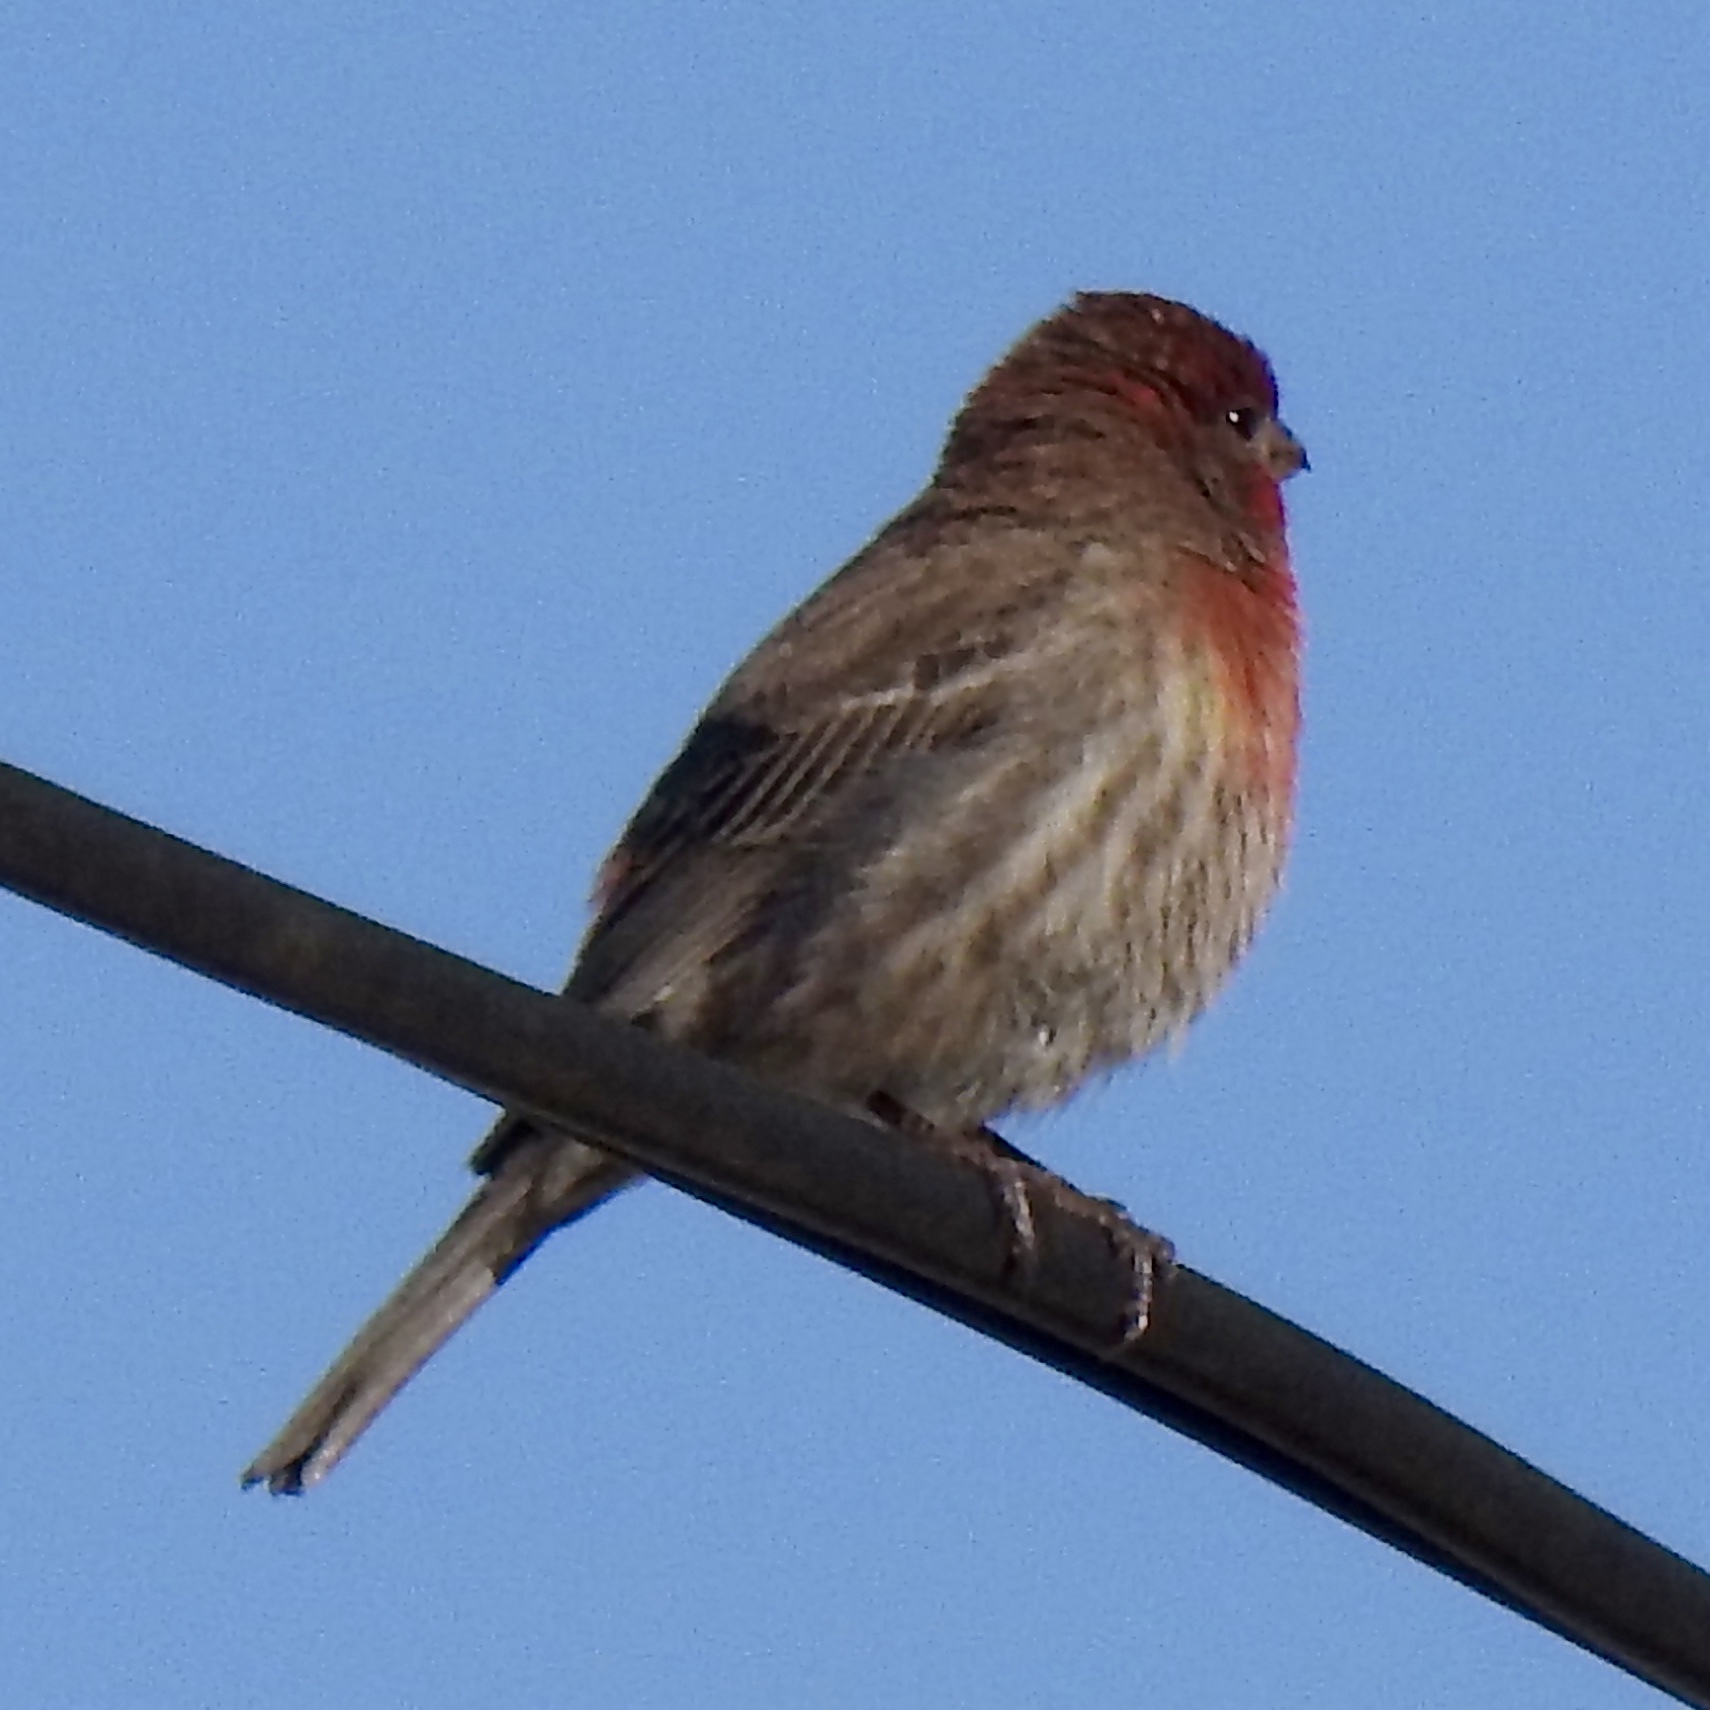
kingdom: Animalia
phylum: Chordata
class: Aves
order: Passeriformes
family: Fringillidae
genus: Haemorhous
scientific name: Haemorhous mexicanus
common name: House finch
